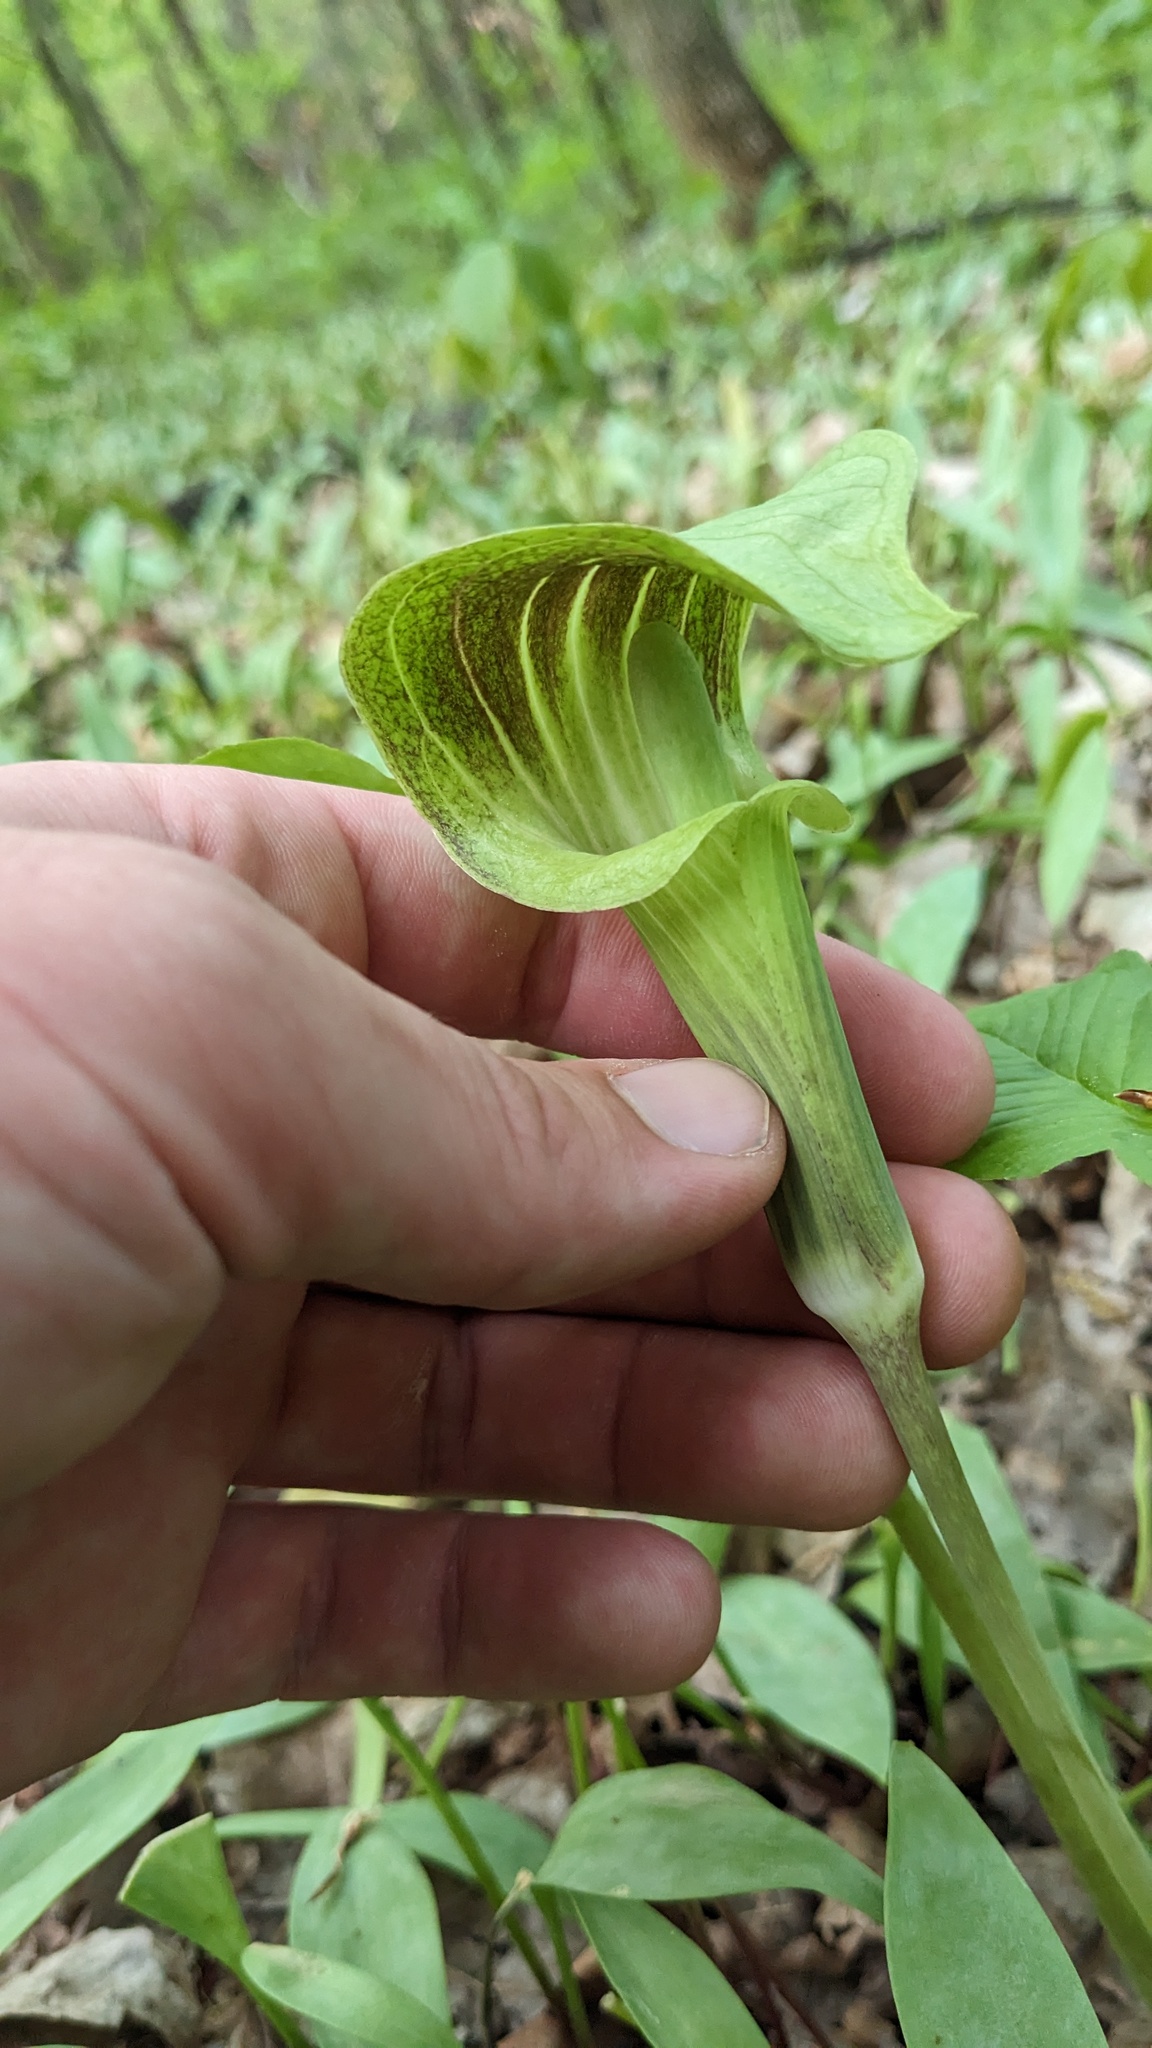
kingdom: Plantae
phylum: Tracheophyta
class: Liliopsida
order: Alismatales
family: Araceae
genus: Arisaema
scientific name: Arisaema triphyllum
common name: Jack-in-the-pulpit
